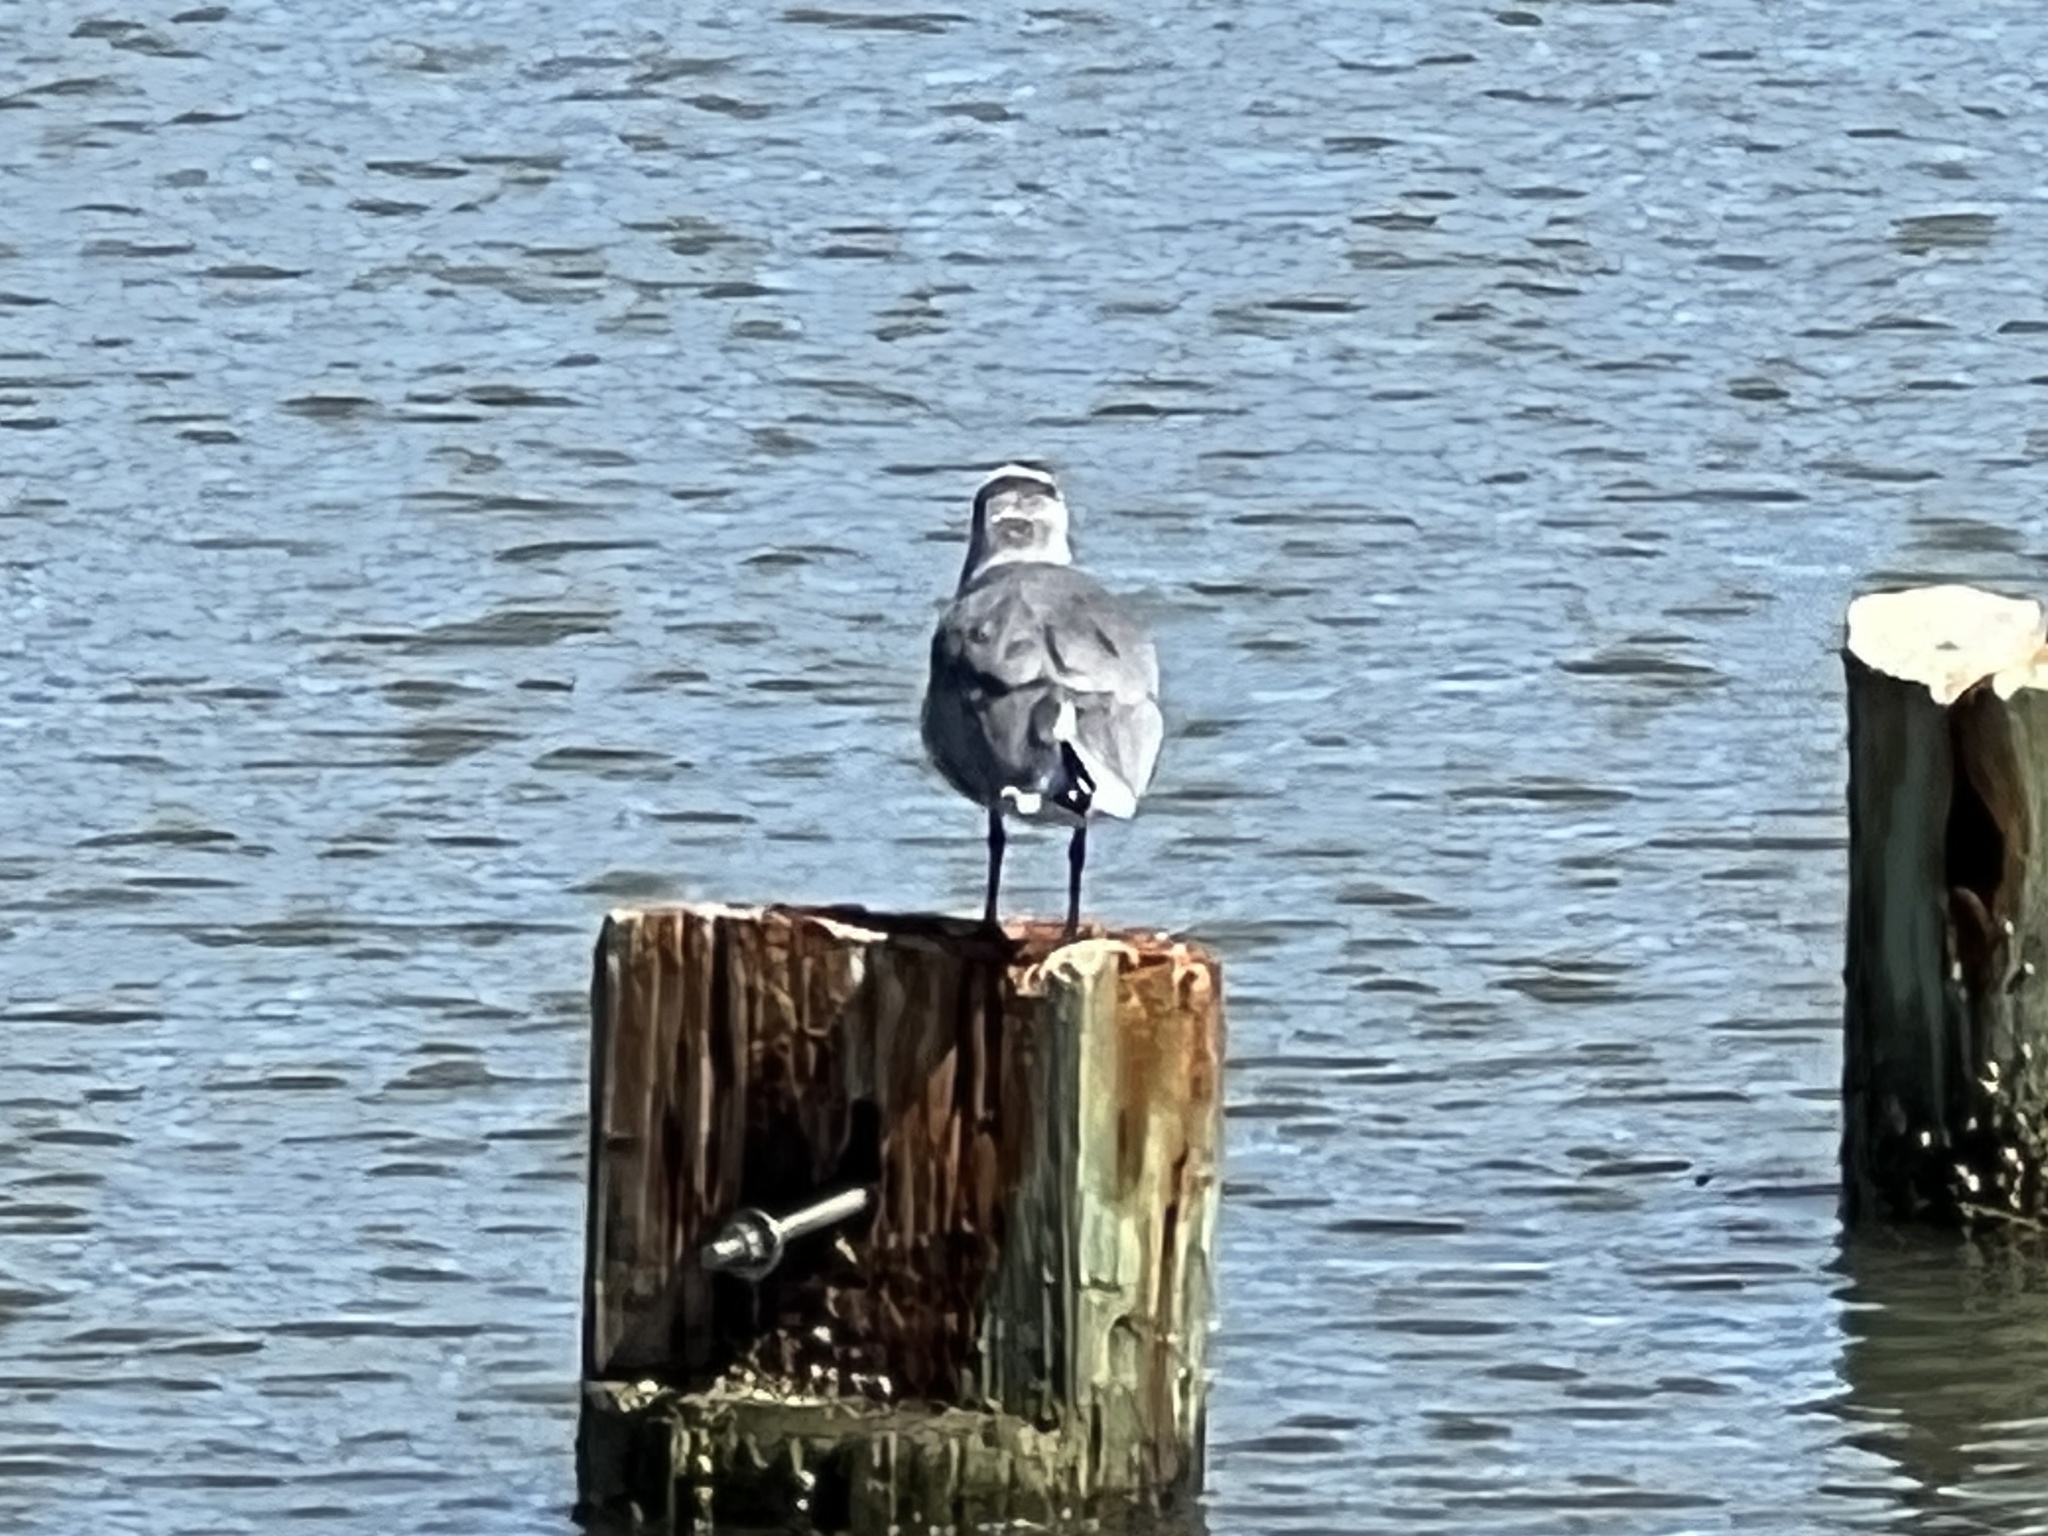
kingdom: Animalia
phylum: Chordata
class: Aves
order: Charadriiformes
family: Laridae
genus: Leucophaeus
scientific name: Leucophaeus atricilla
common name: Laughing gull
